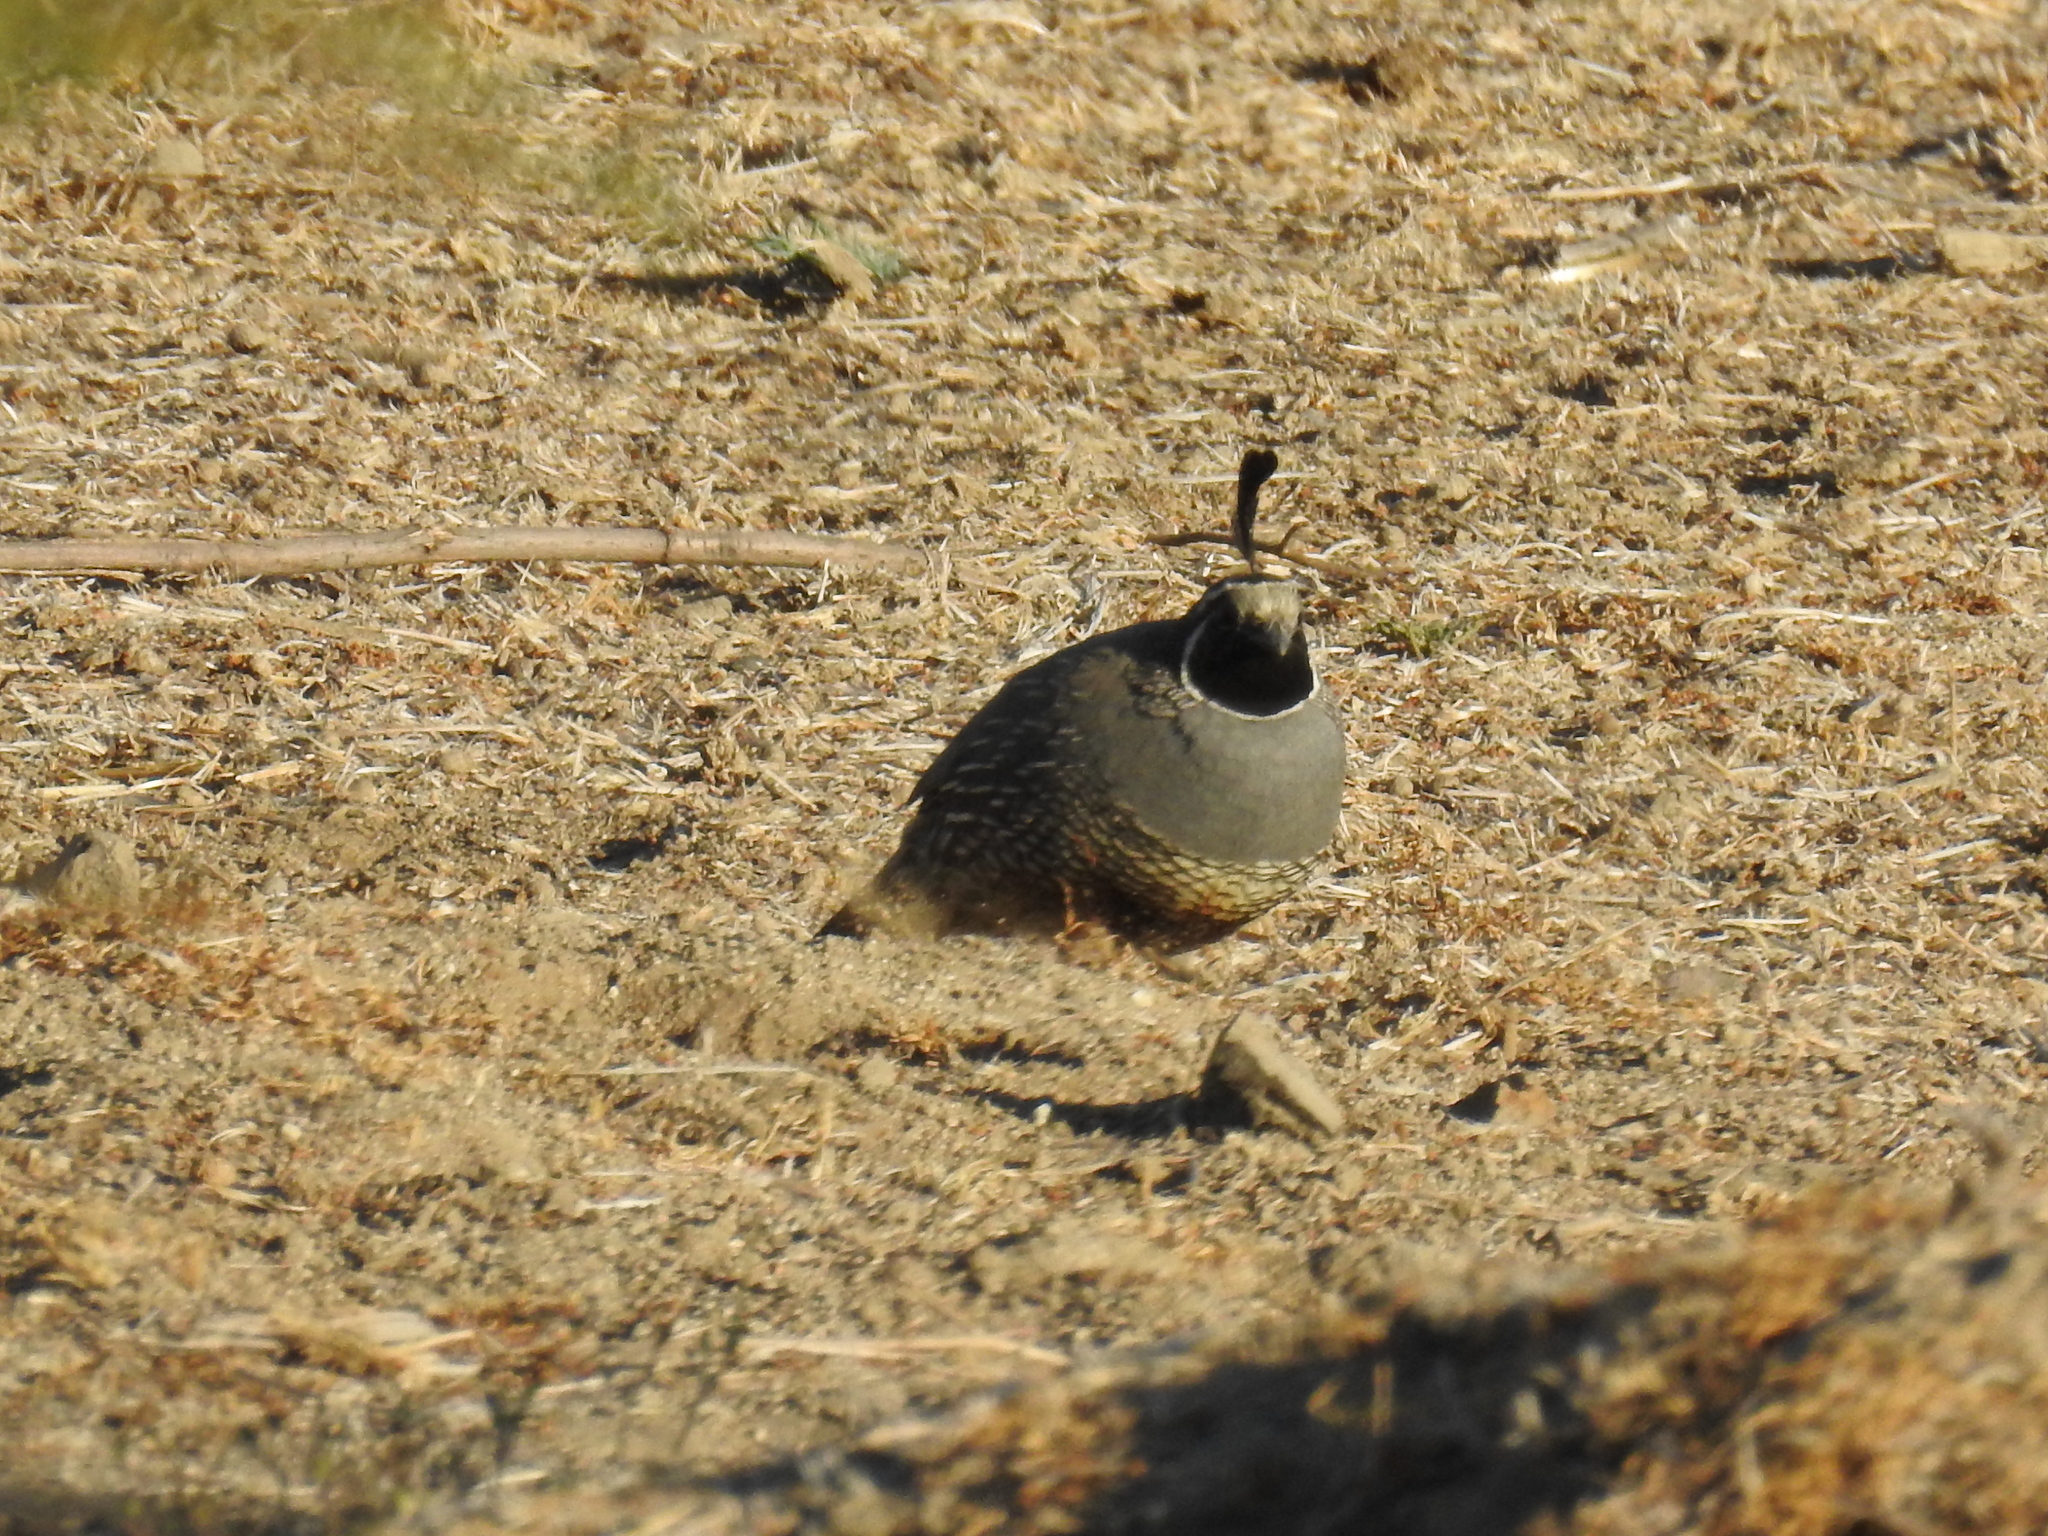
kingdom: Animalia
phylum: Chordata
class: Aves
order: Galliformes
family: Odontophoridae
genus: Callipepla
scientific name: Callipepla californica
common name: California quail
